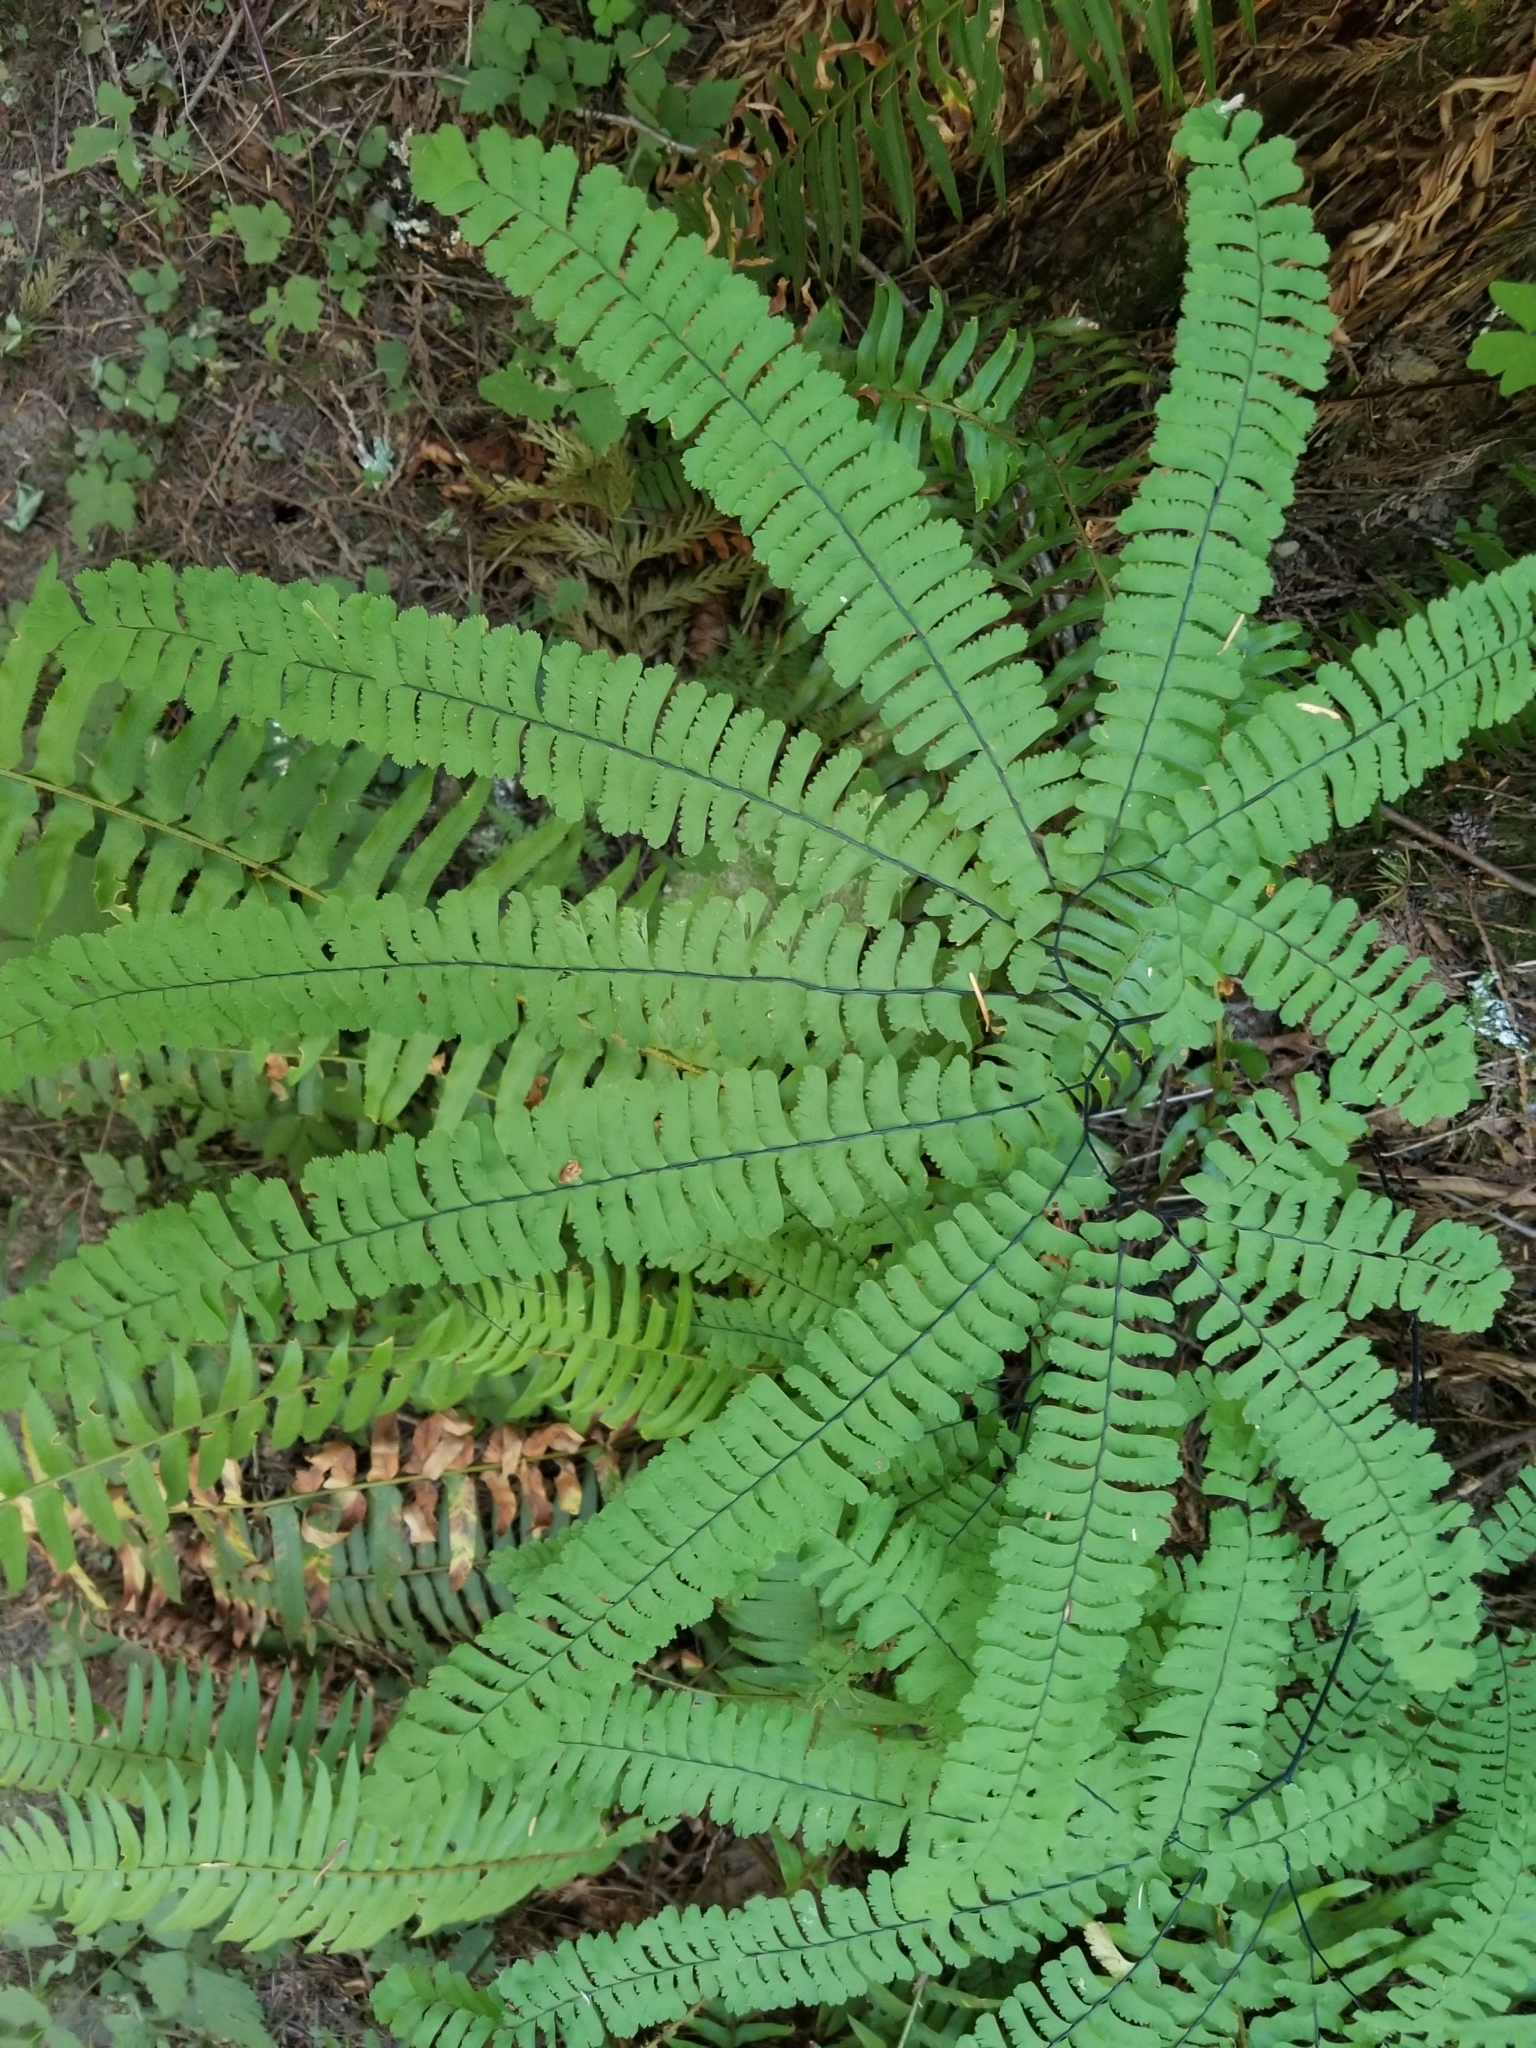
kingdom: Plantae
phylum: Tracheophyta
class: Polypodiopsida
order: Polypodiales
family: Pteridaceae
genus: Adiantum
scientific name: Adiantum aleuticum
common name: Aleutian maidenhair fern
